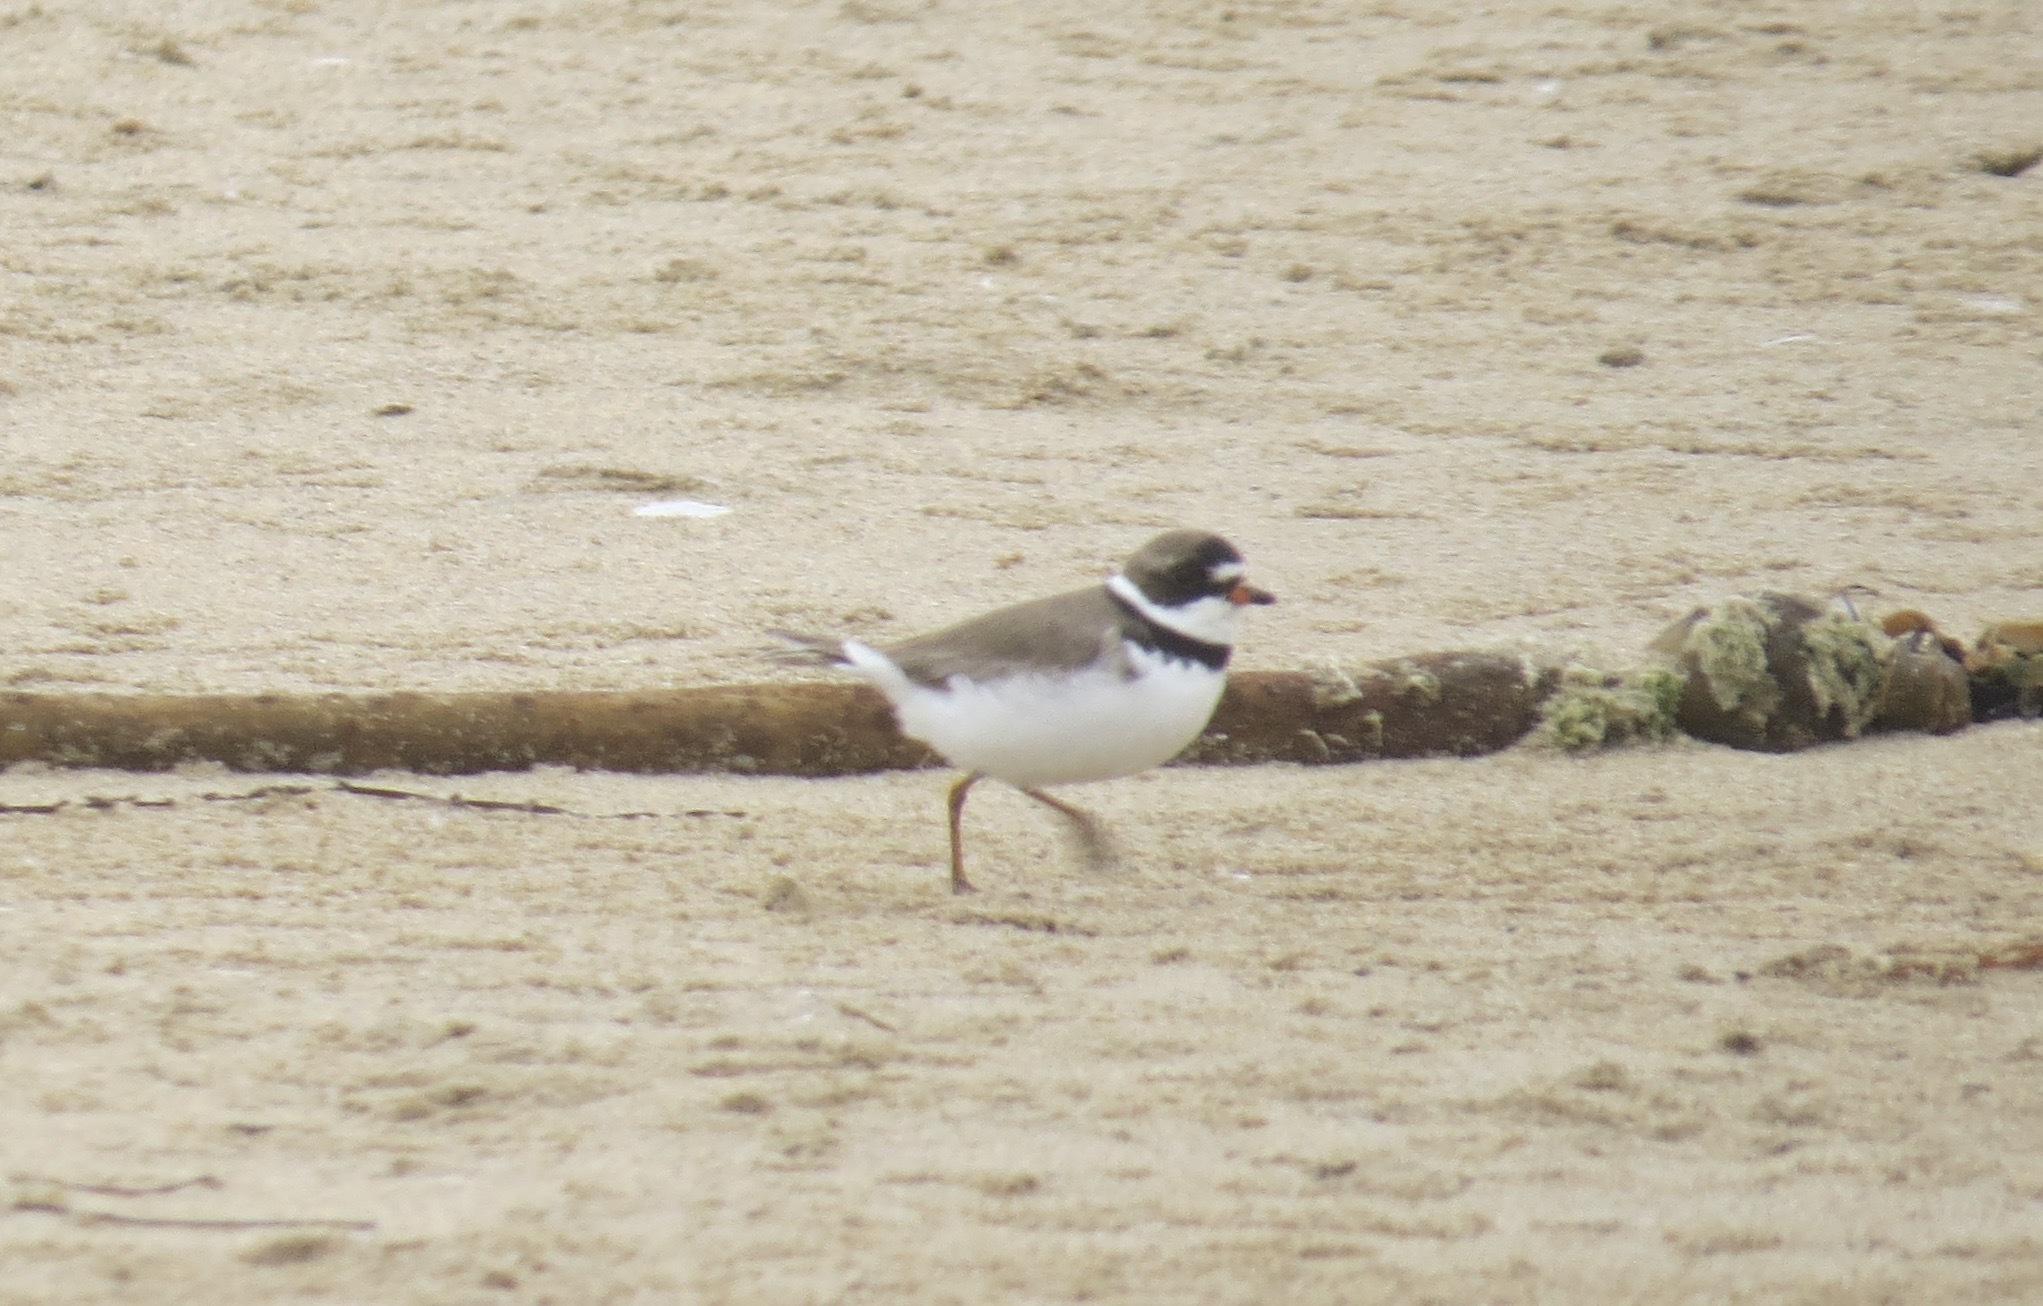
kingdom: Animalia
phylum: Chordata
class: Aves
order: Charadriiformes
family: Charadriidae
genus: Charadrius
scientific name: Charadrius semipalmatus
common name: Semipalmated plover
